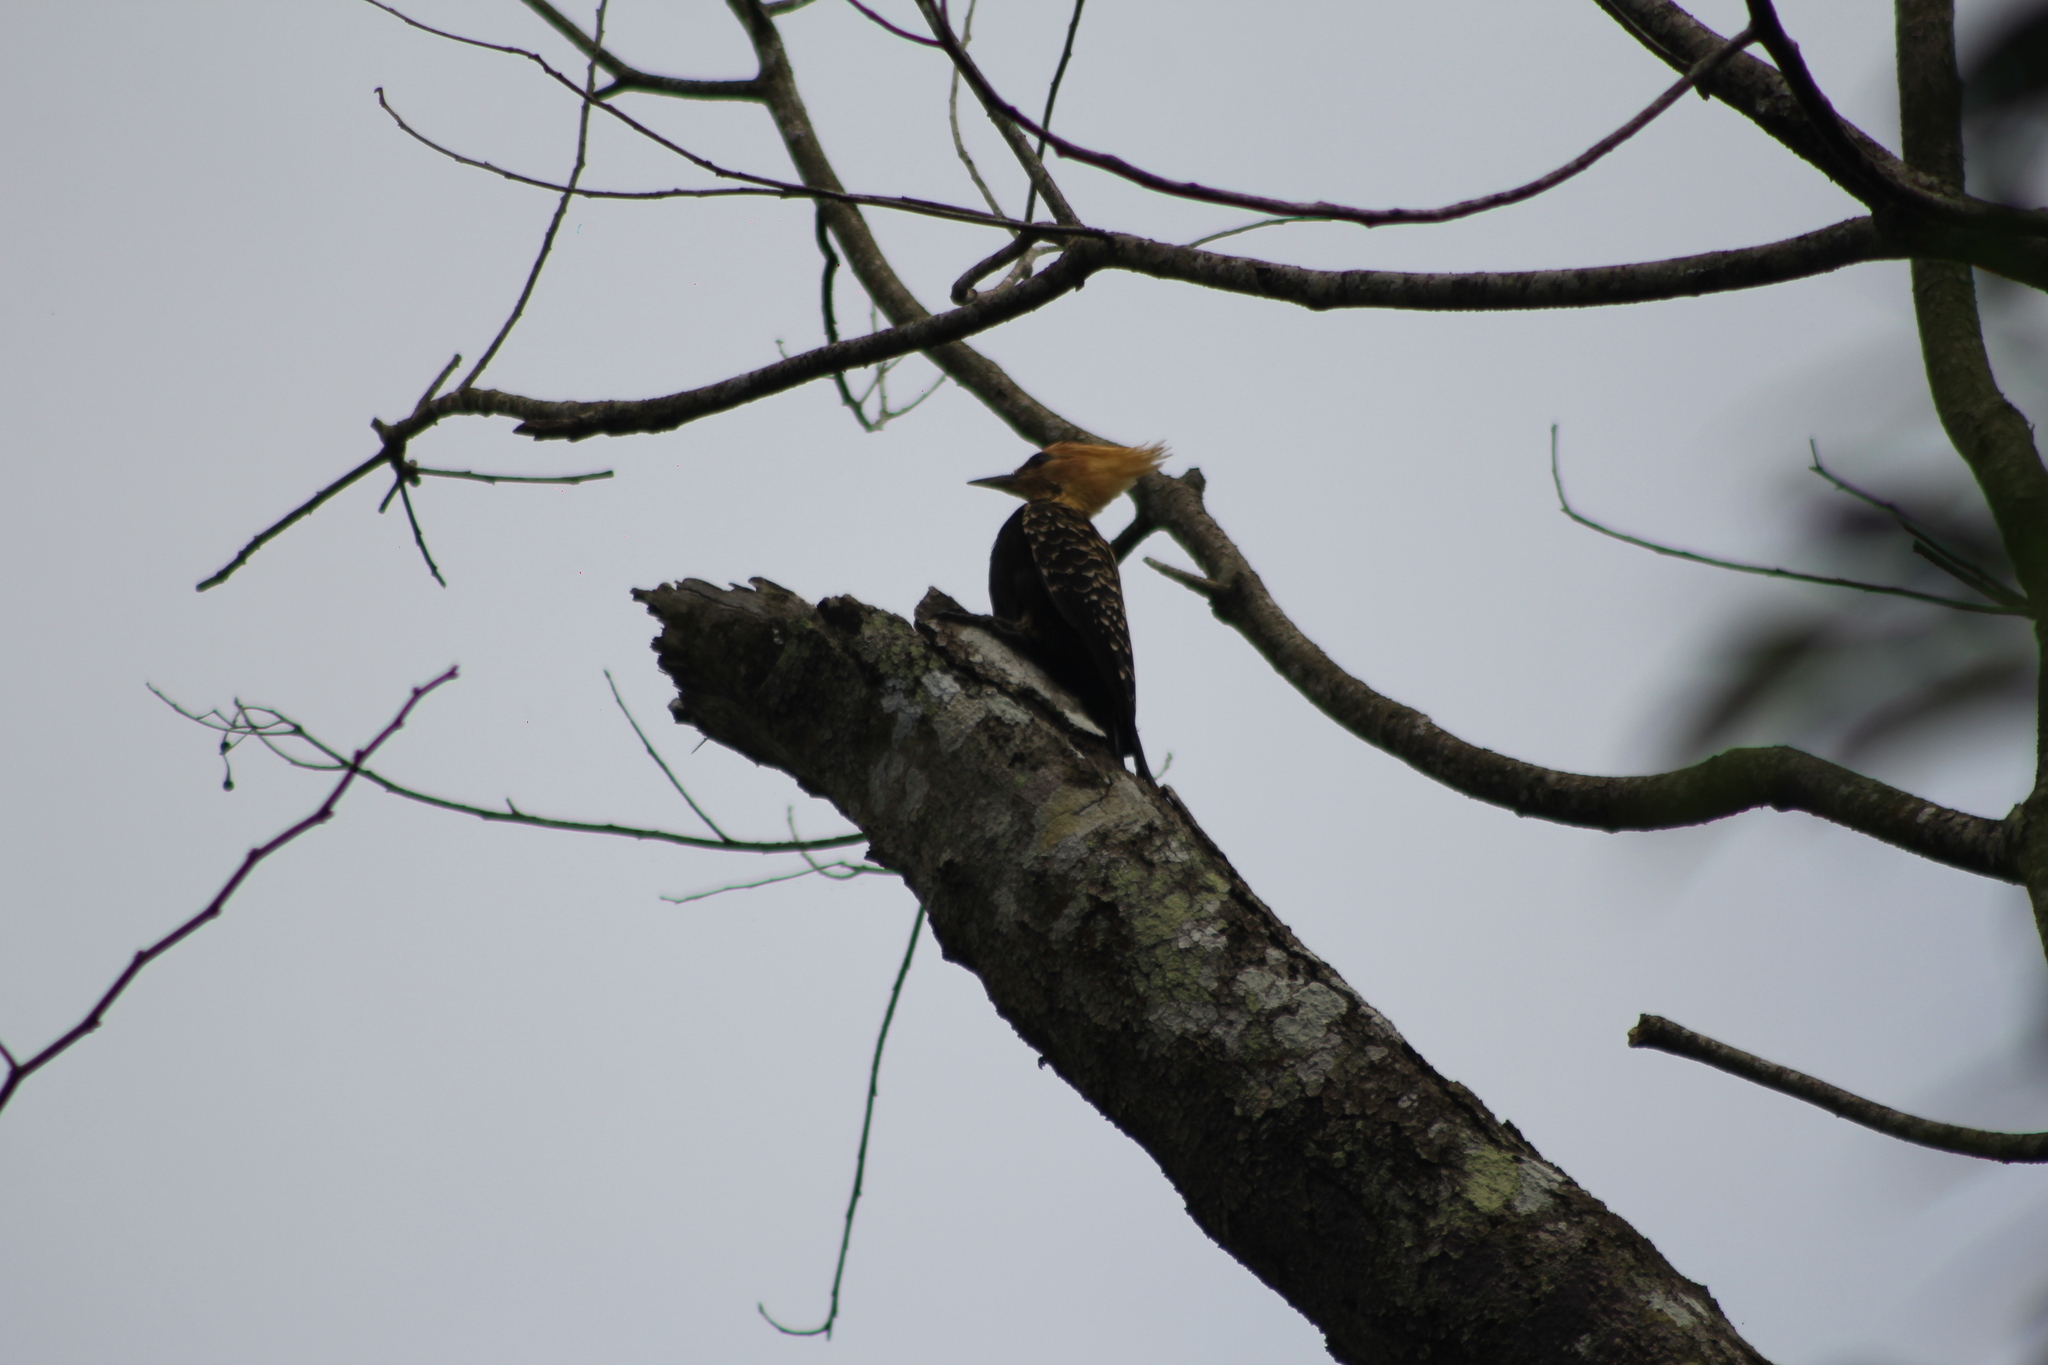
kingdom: Animalia
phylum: Chordata
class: Aves
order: Piciformes
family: Picidae
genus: Celeus
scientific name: Celeus flavescens
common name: Blond-crested woodpecker
